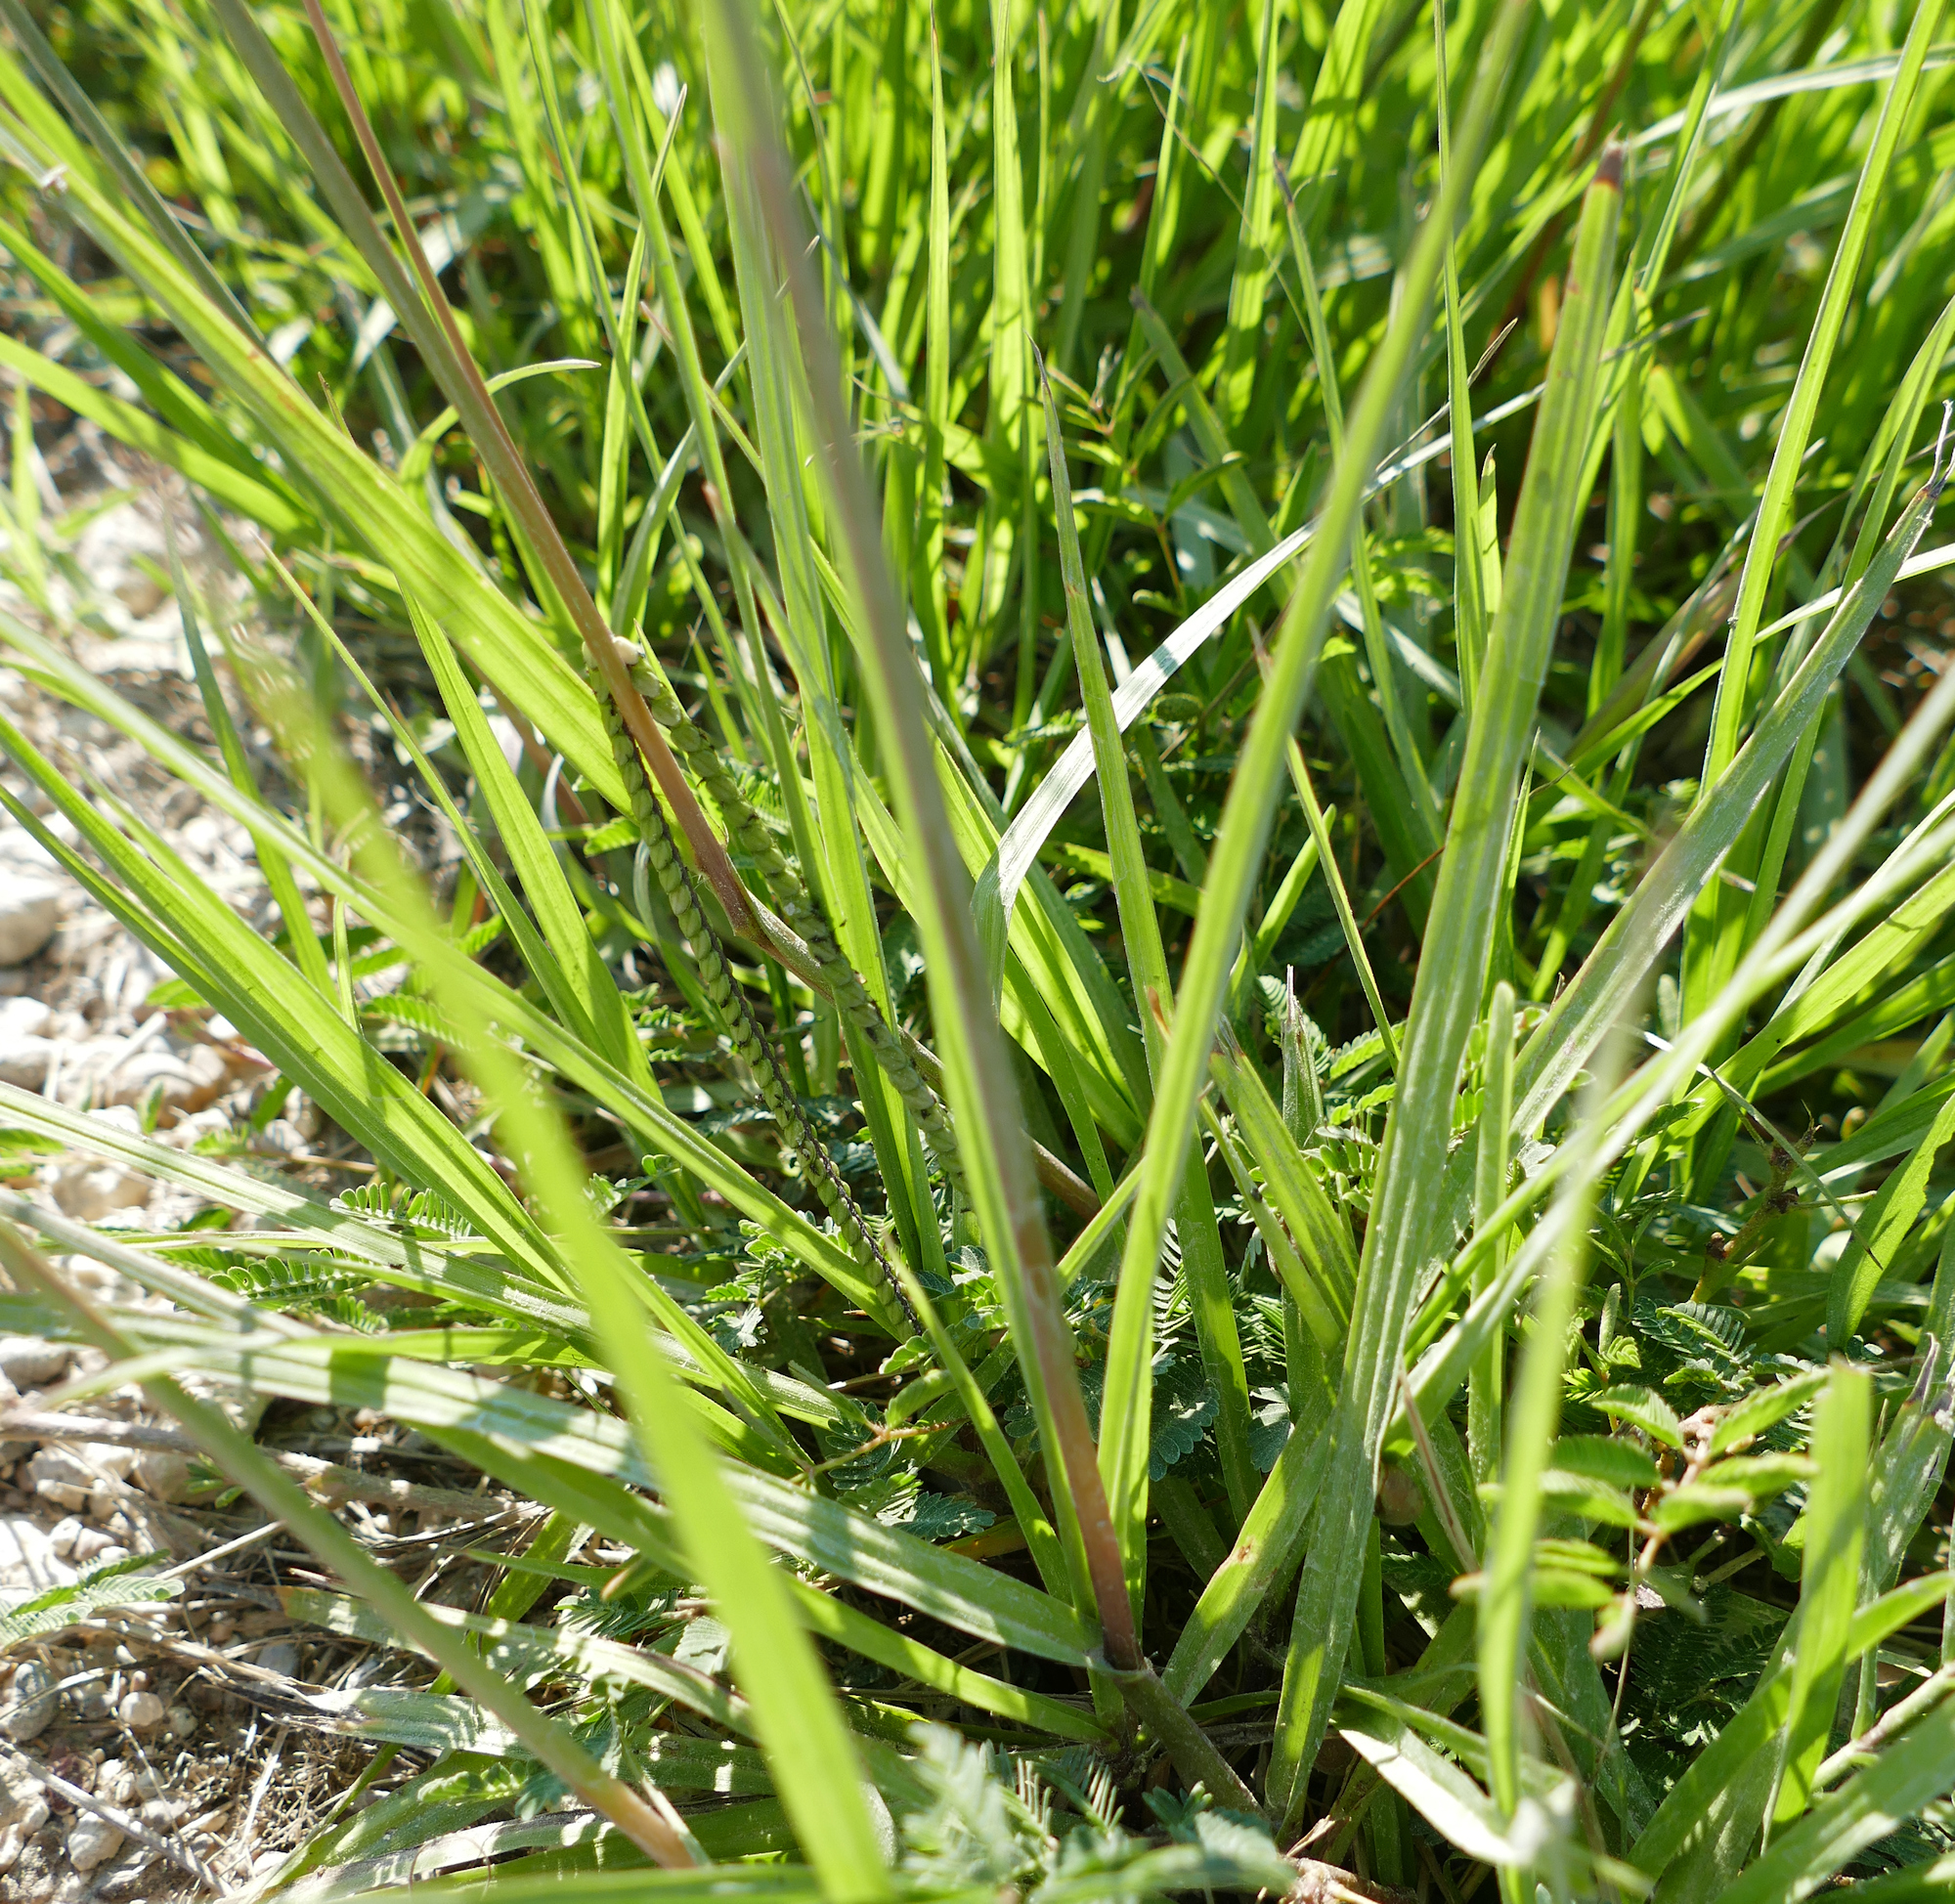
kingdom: Plantae
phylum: Tracheophyta
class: Liliopsida
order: Poales
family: Poaceae
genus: Paspalum
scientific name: Paspalum notatum
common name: Bahiagrass
